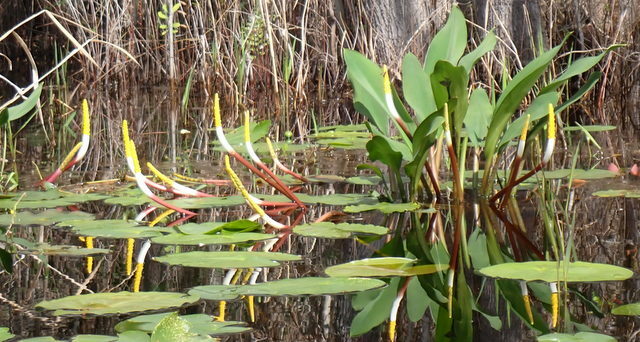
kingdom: Plantae
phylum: Tracheophyta
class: Liliopsida
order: Alismatales
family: Araceae
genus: Orontium
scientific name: Orontium aquaticum
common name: Golden-club
